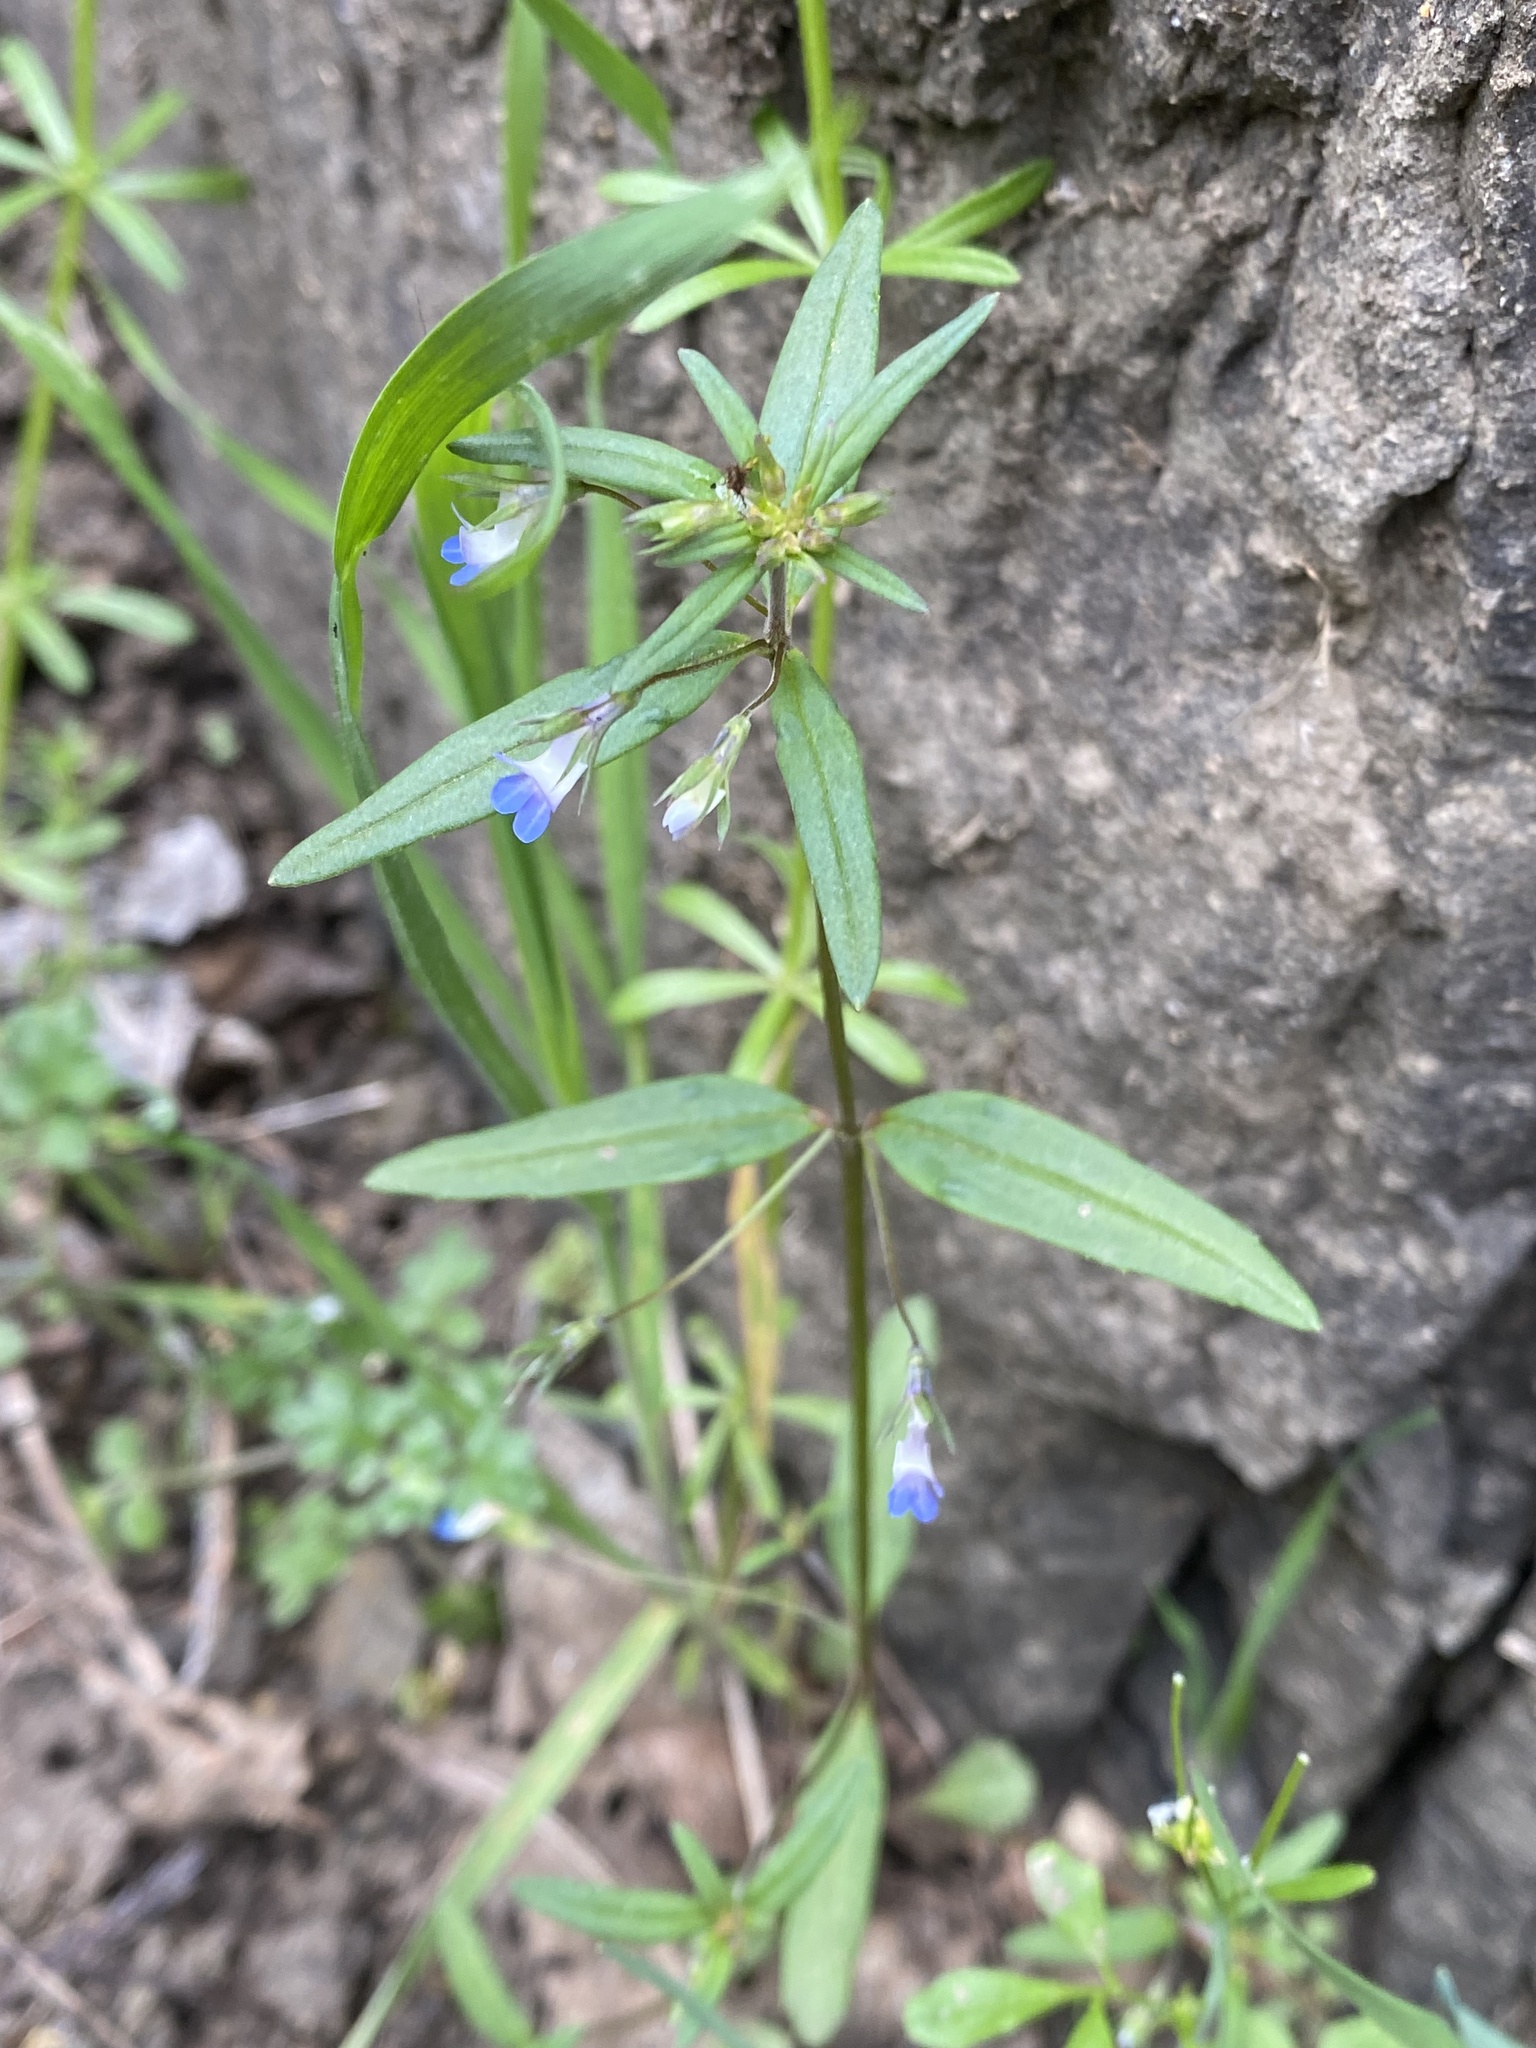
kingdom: Plantae
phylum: Tracheophyta
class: Magnoliopsida
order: Lamiales
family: Plantaginaceae
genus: Collinsia
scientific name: Collinsia parviflora
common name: Blue-lips
